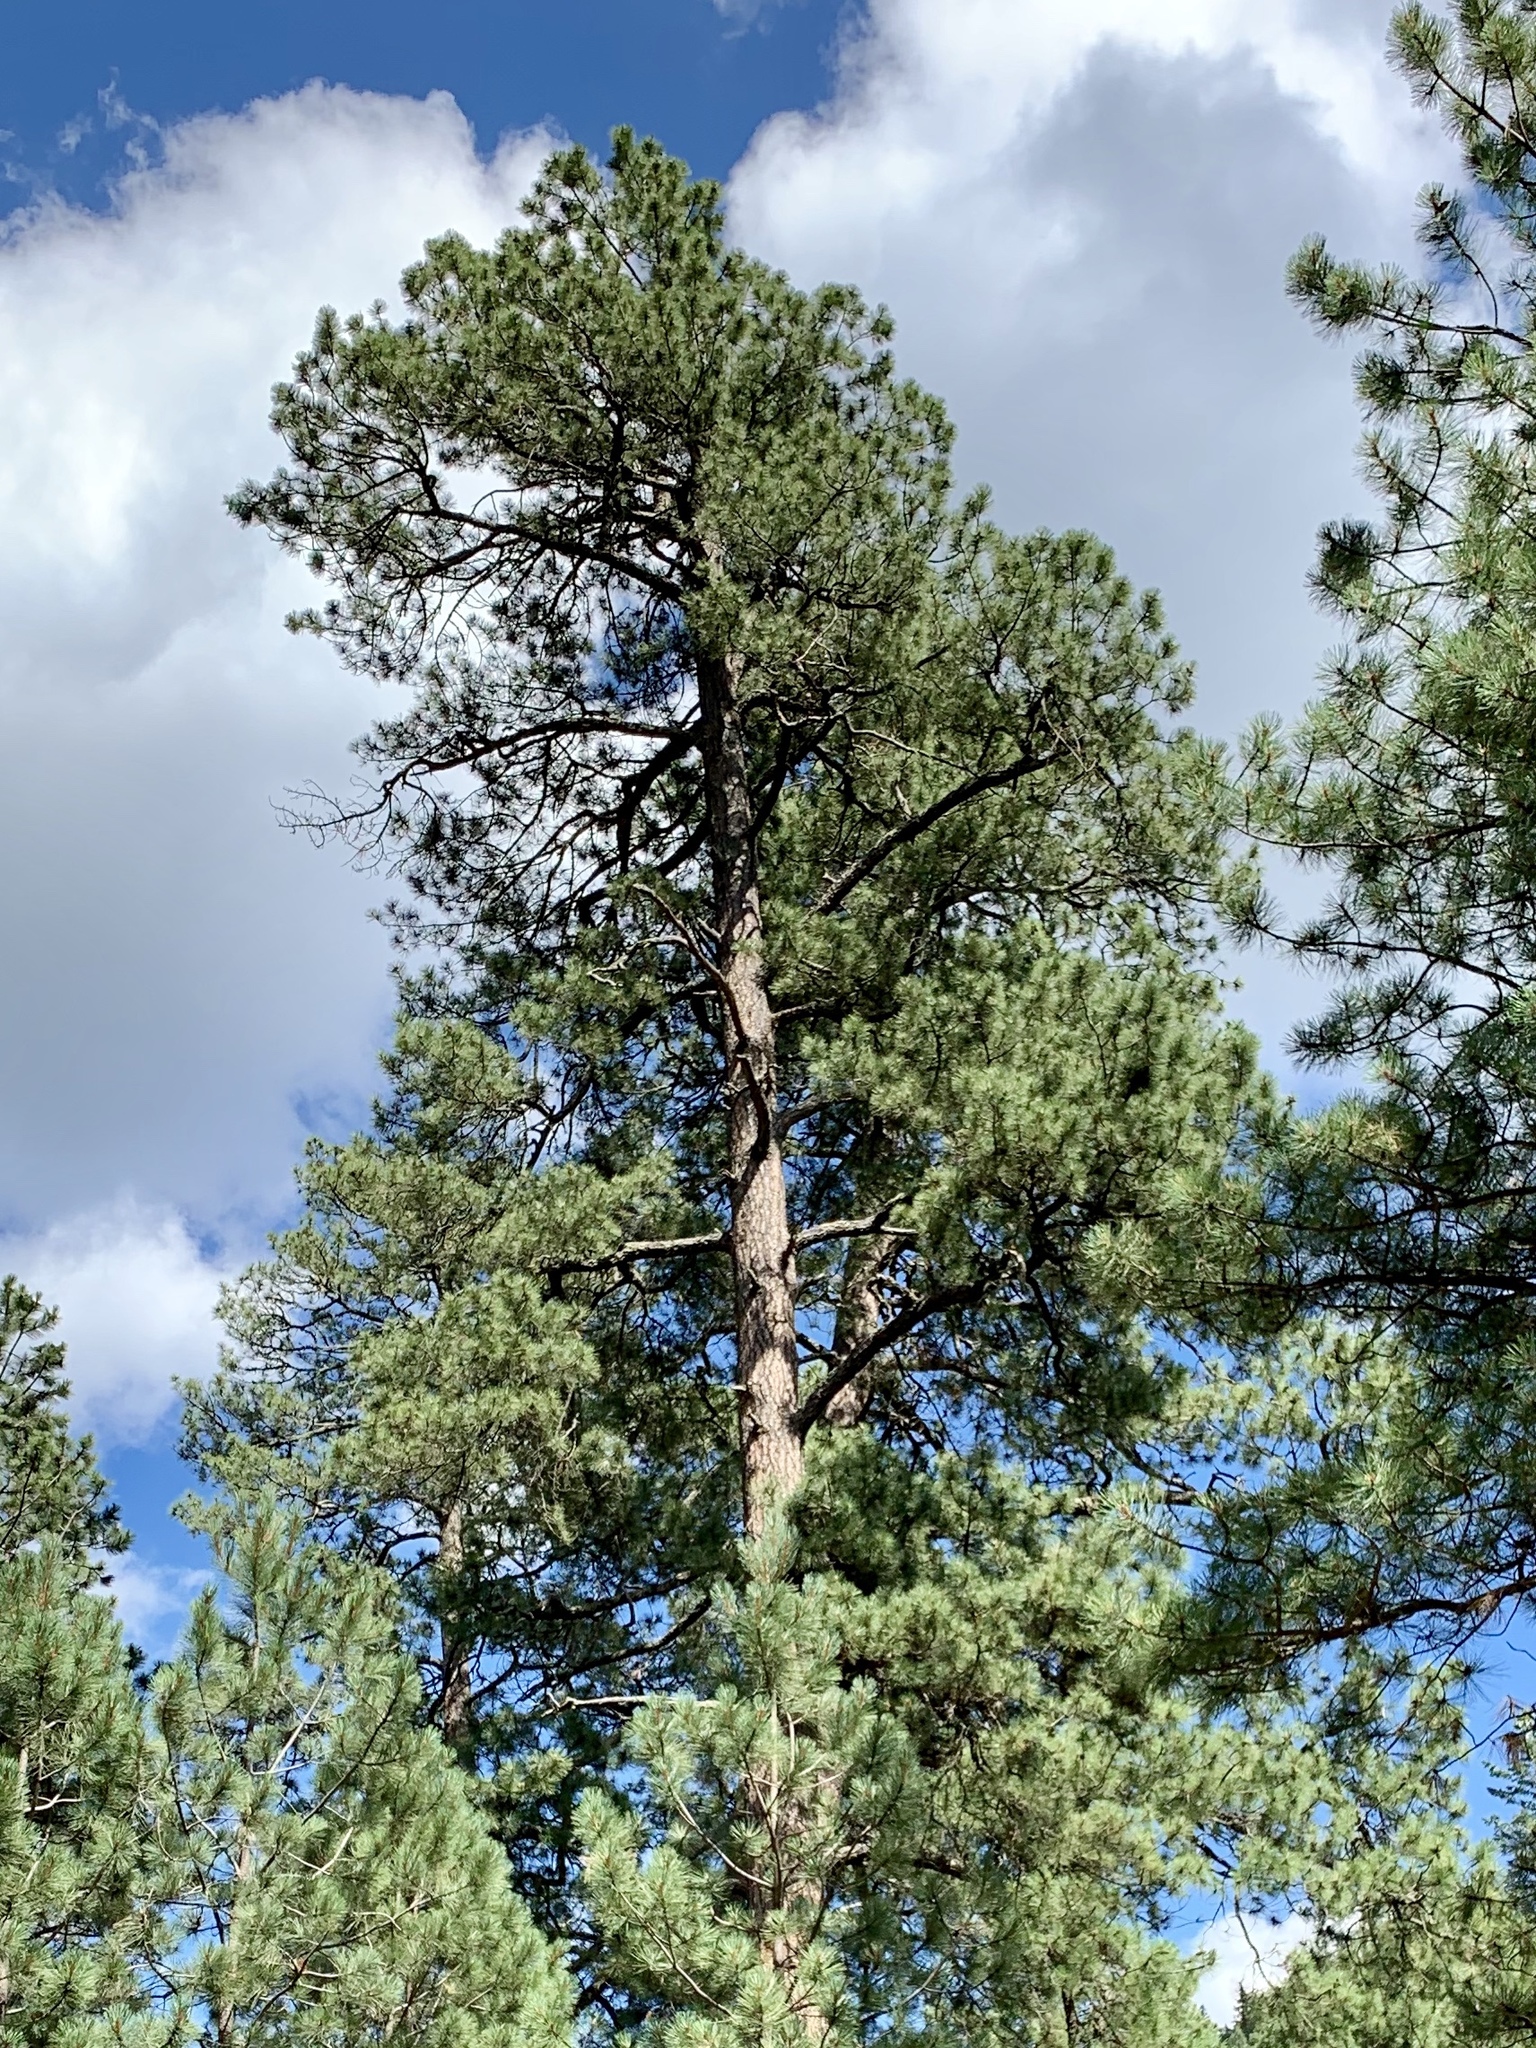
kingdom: Plantae
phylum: Tracheophyta
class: Pinopsida
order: Pinales
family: Pinaceae
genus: Pinus
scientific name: Pinus ponderosa
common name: Western yellow-pine
